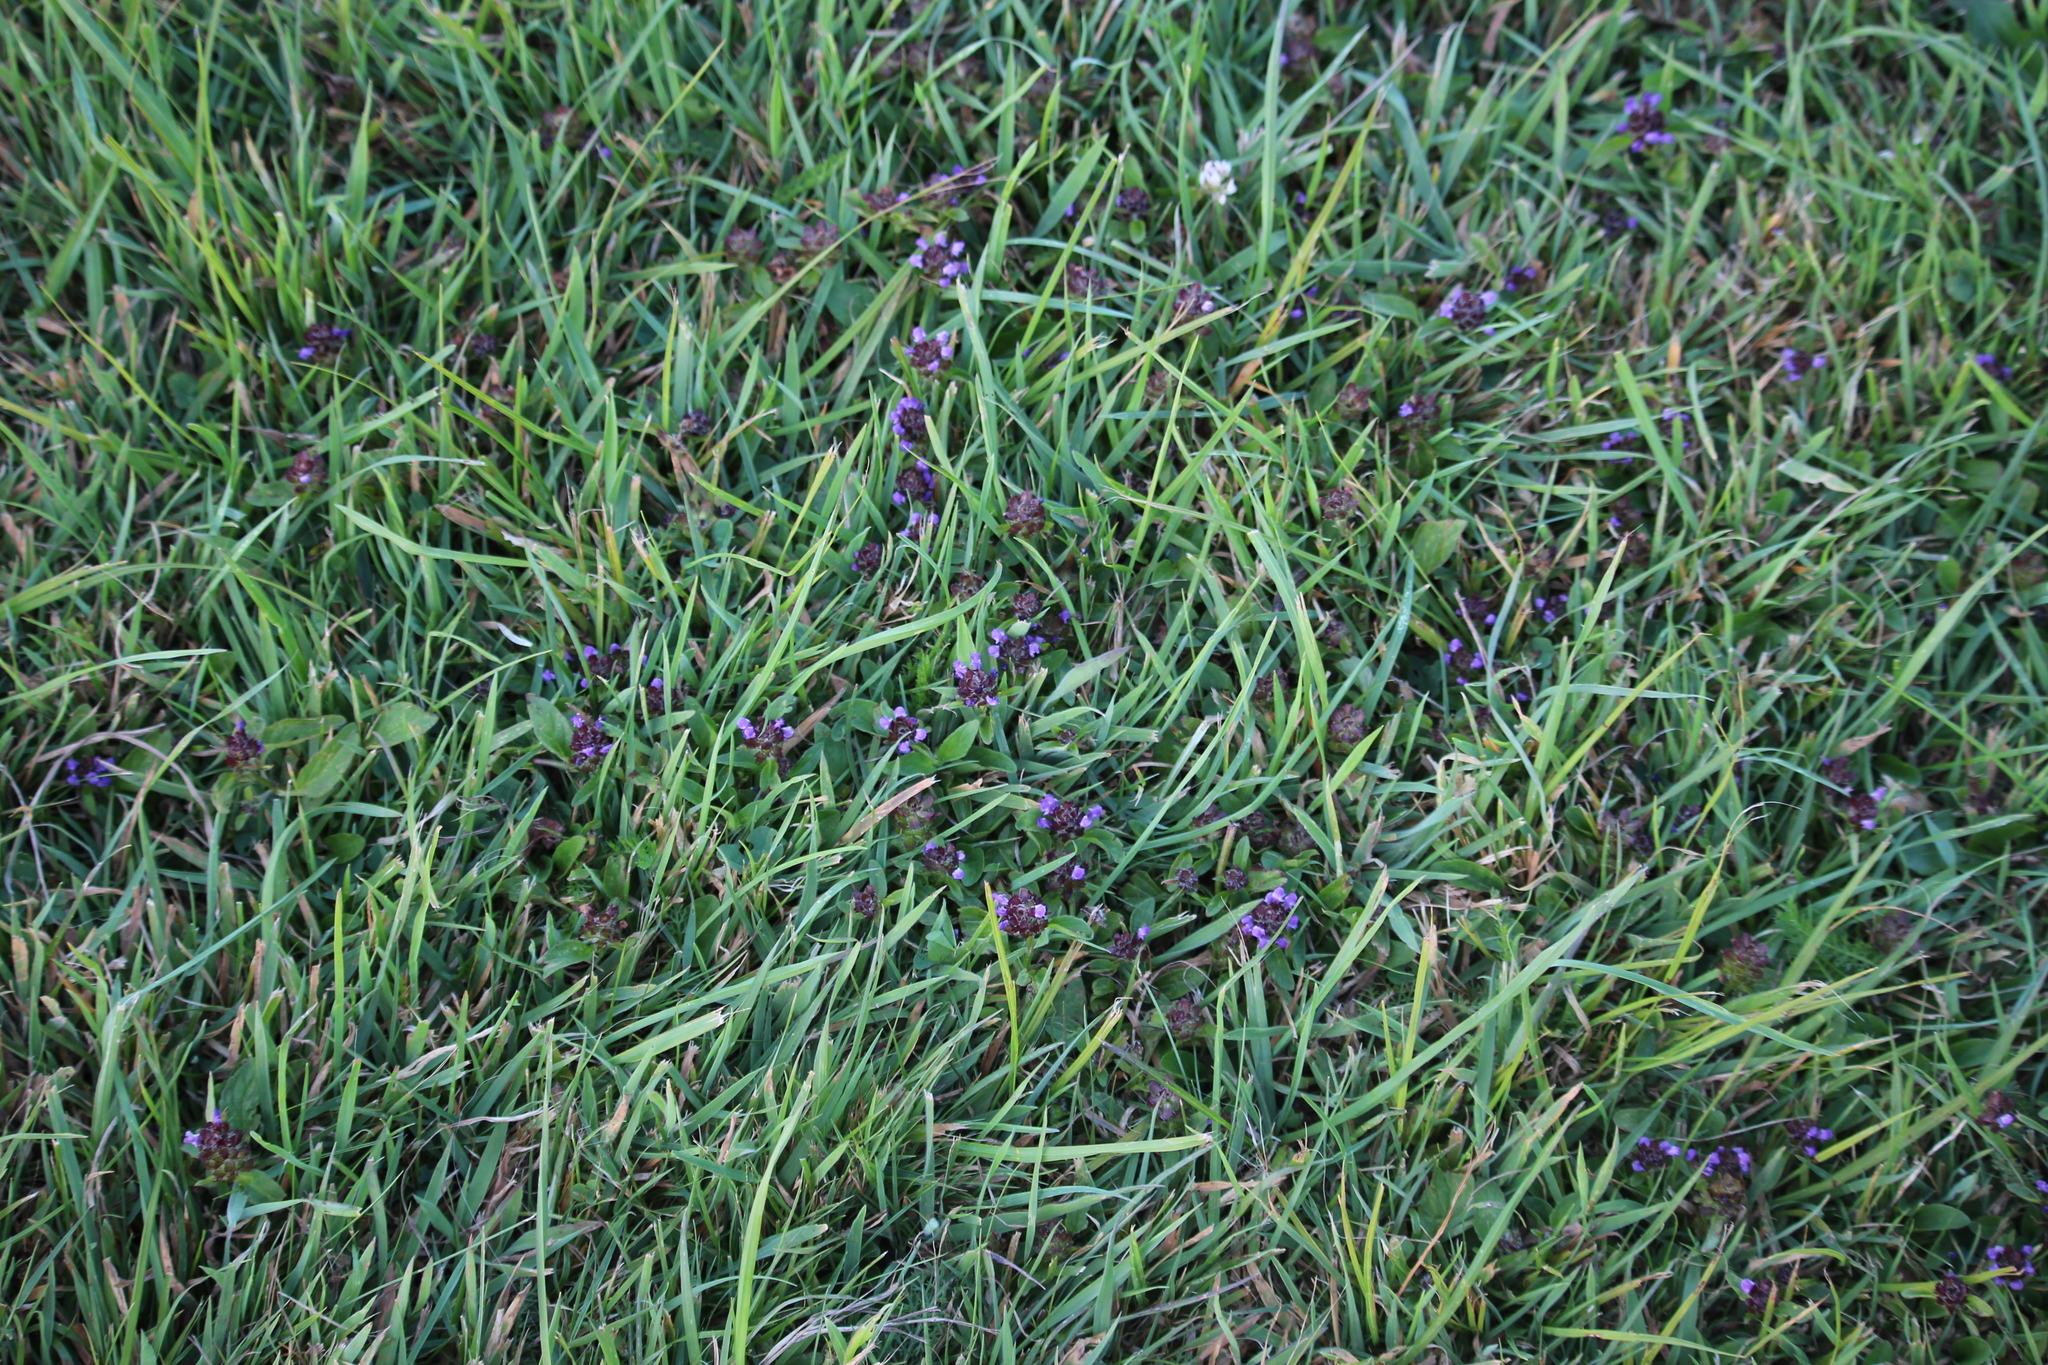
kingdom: Plantae
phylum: Tracheophyta
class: Magnoliopsida
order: Lamiales
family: Lamiaceae
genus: Prunella
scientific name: Prunella vulgaris
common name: Heal-all
